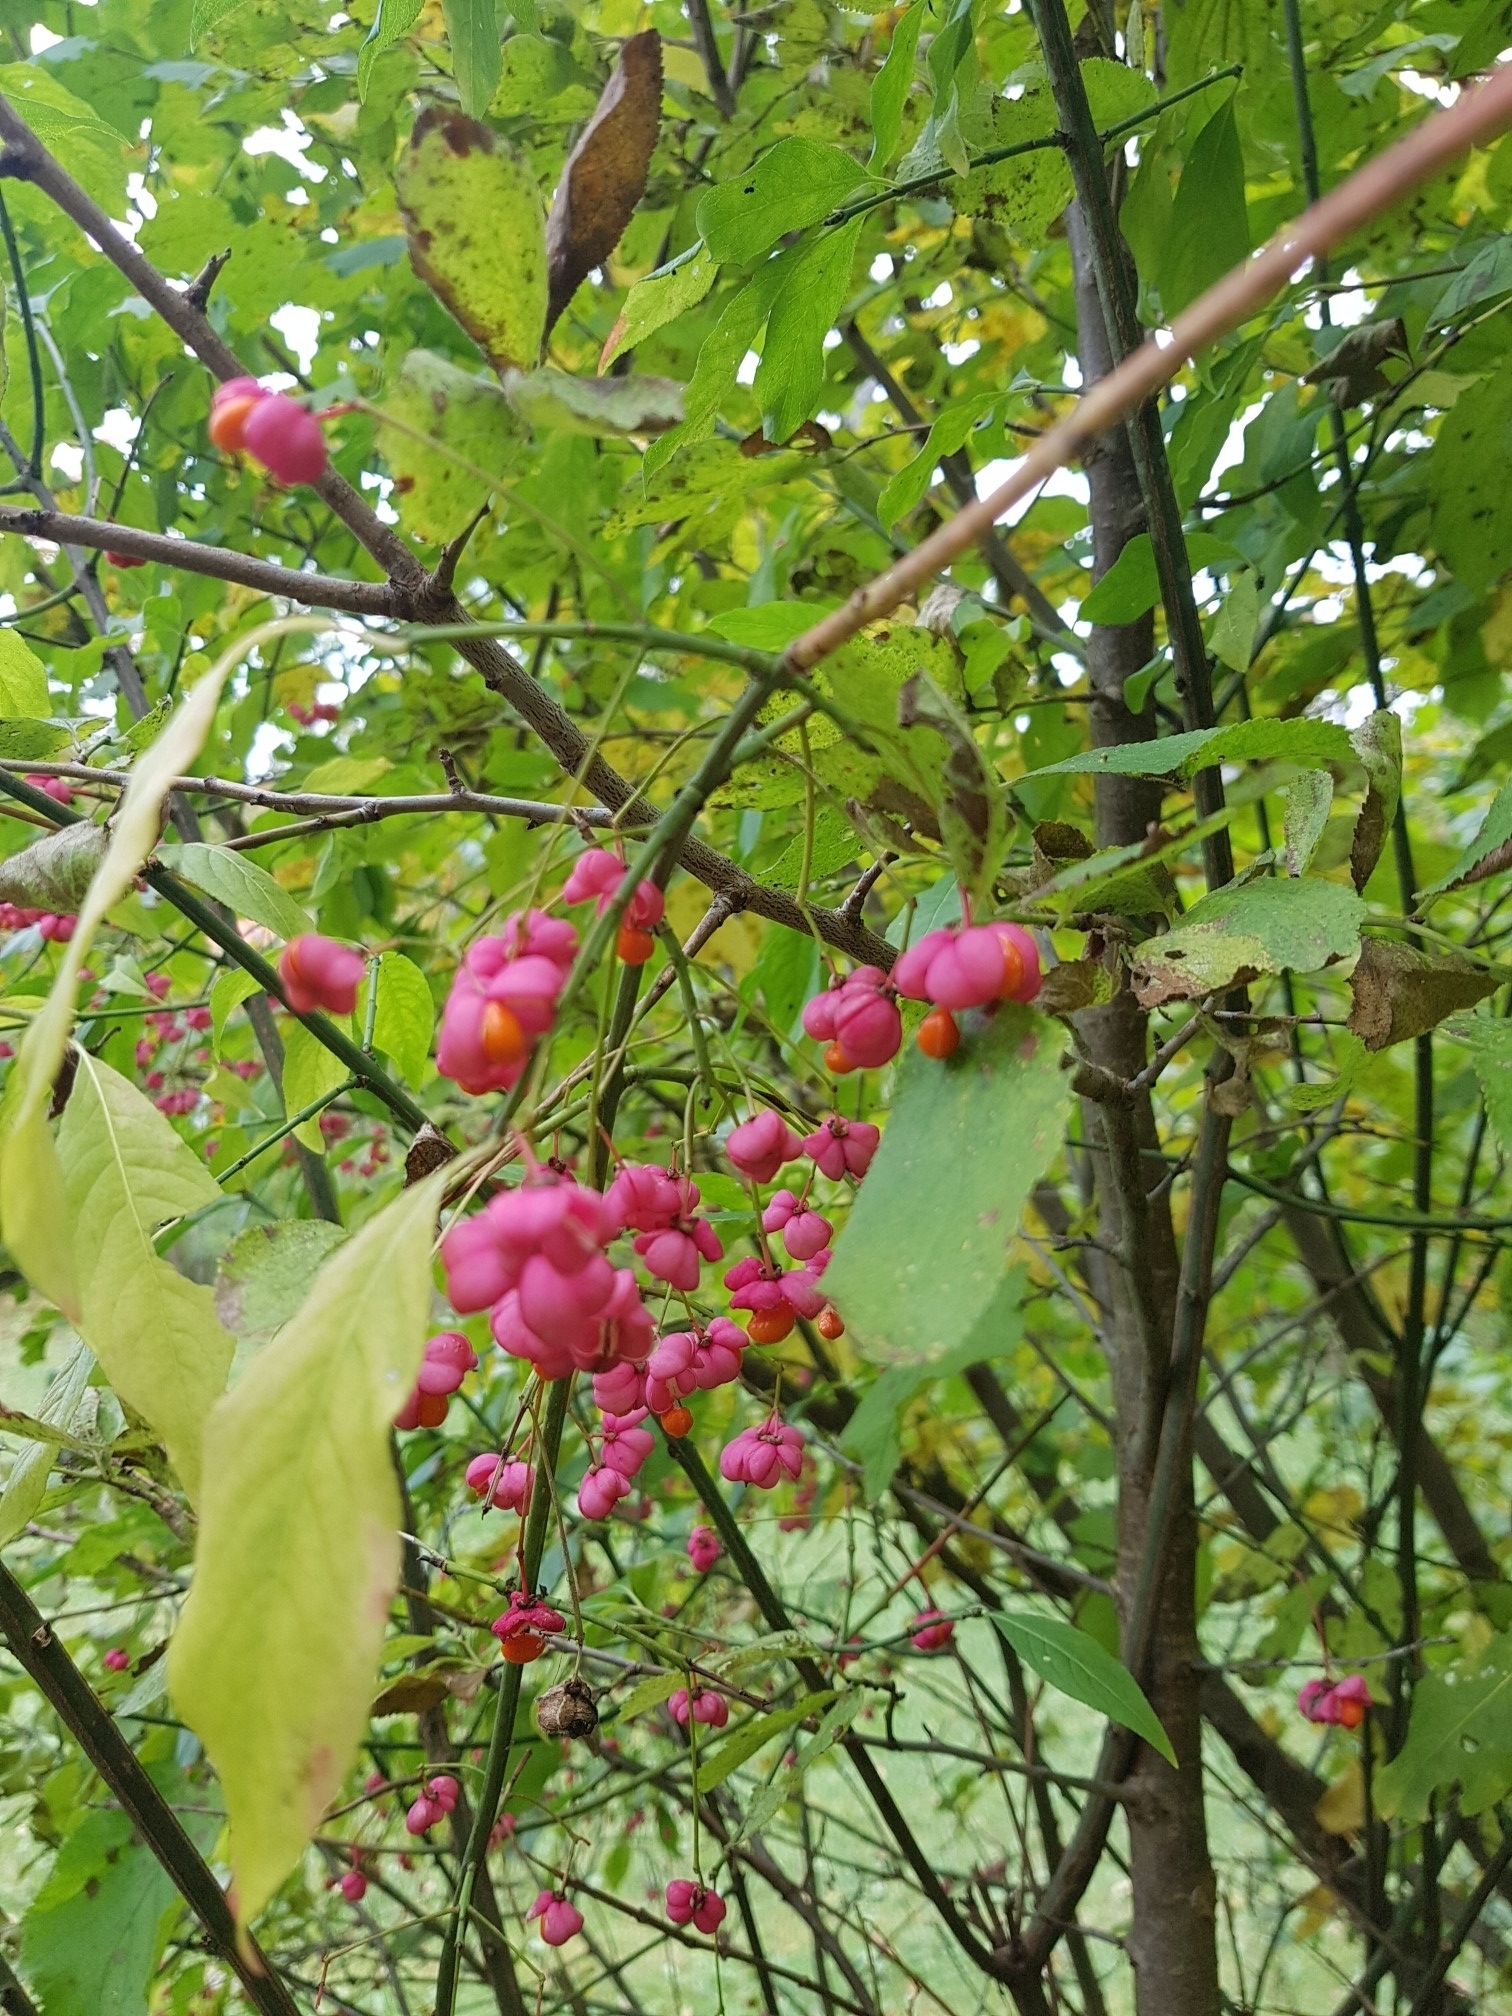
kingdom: Plantae
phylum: Tracheophyta
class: Magnoliopsida
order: Celastrales
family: Celastraceae
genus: Euonymus
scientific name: Euonymus europaeus
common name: Spindle
